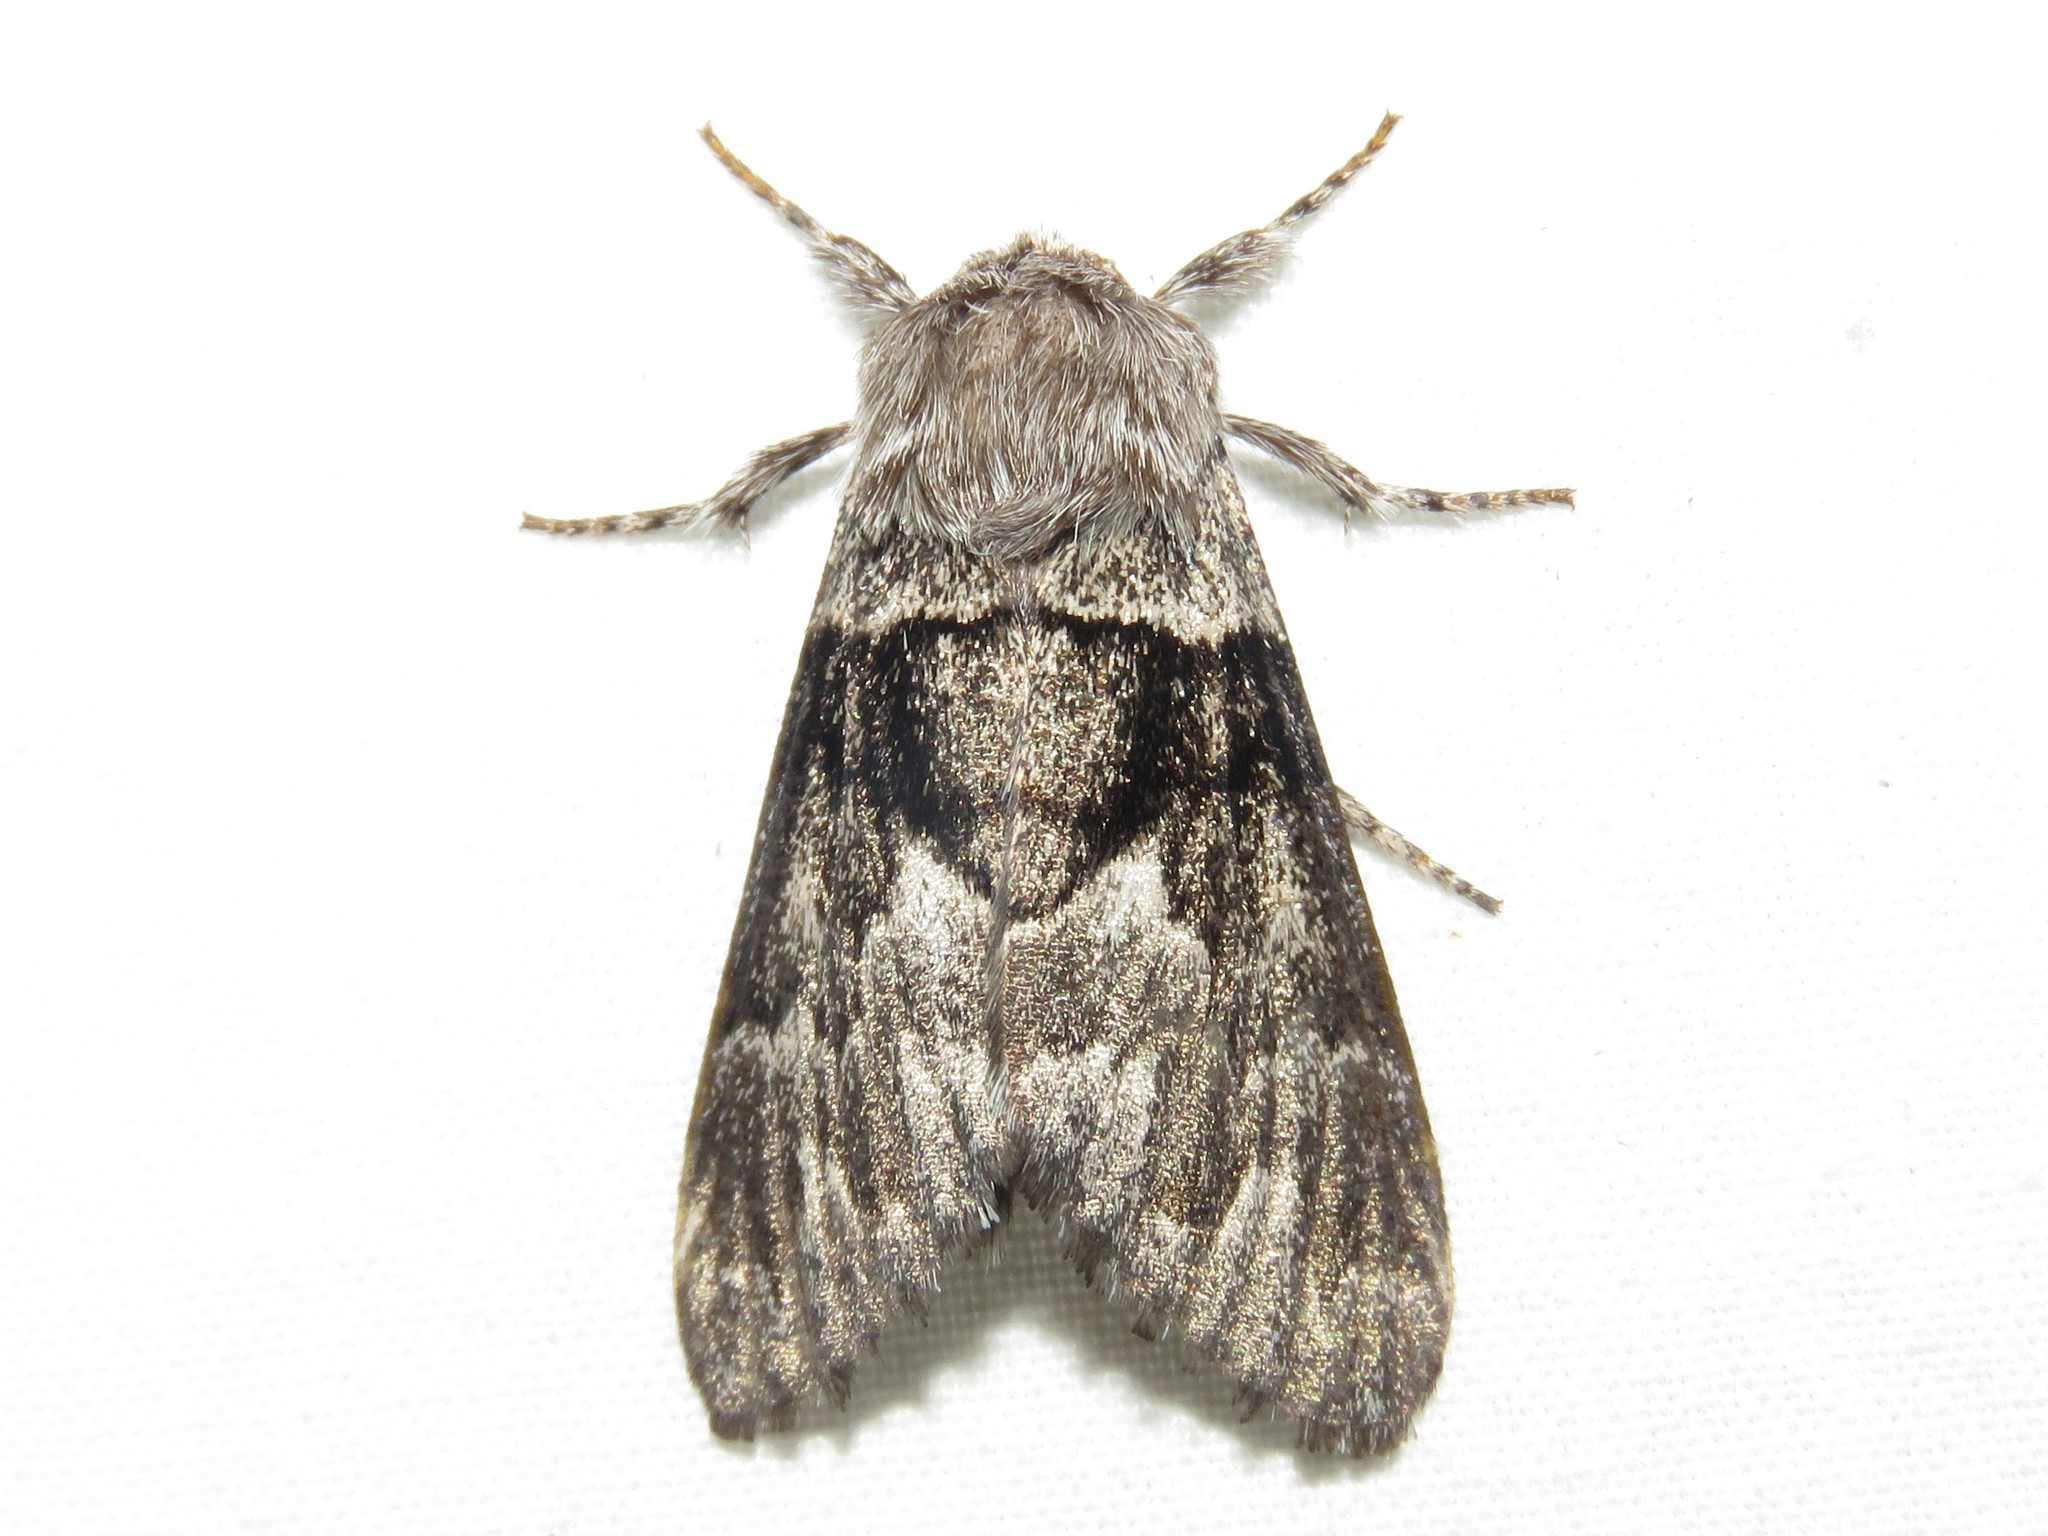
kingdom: Animalia
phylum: Arthropoda
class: Insecta
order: Lepidoptera
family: Noctuidae
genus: Panthea
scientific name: Panthea furcilla
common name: Eastern panthea moth
